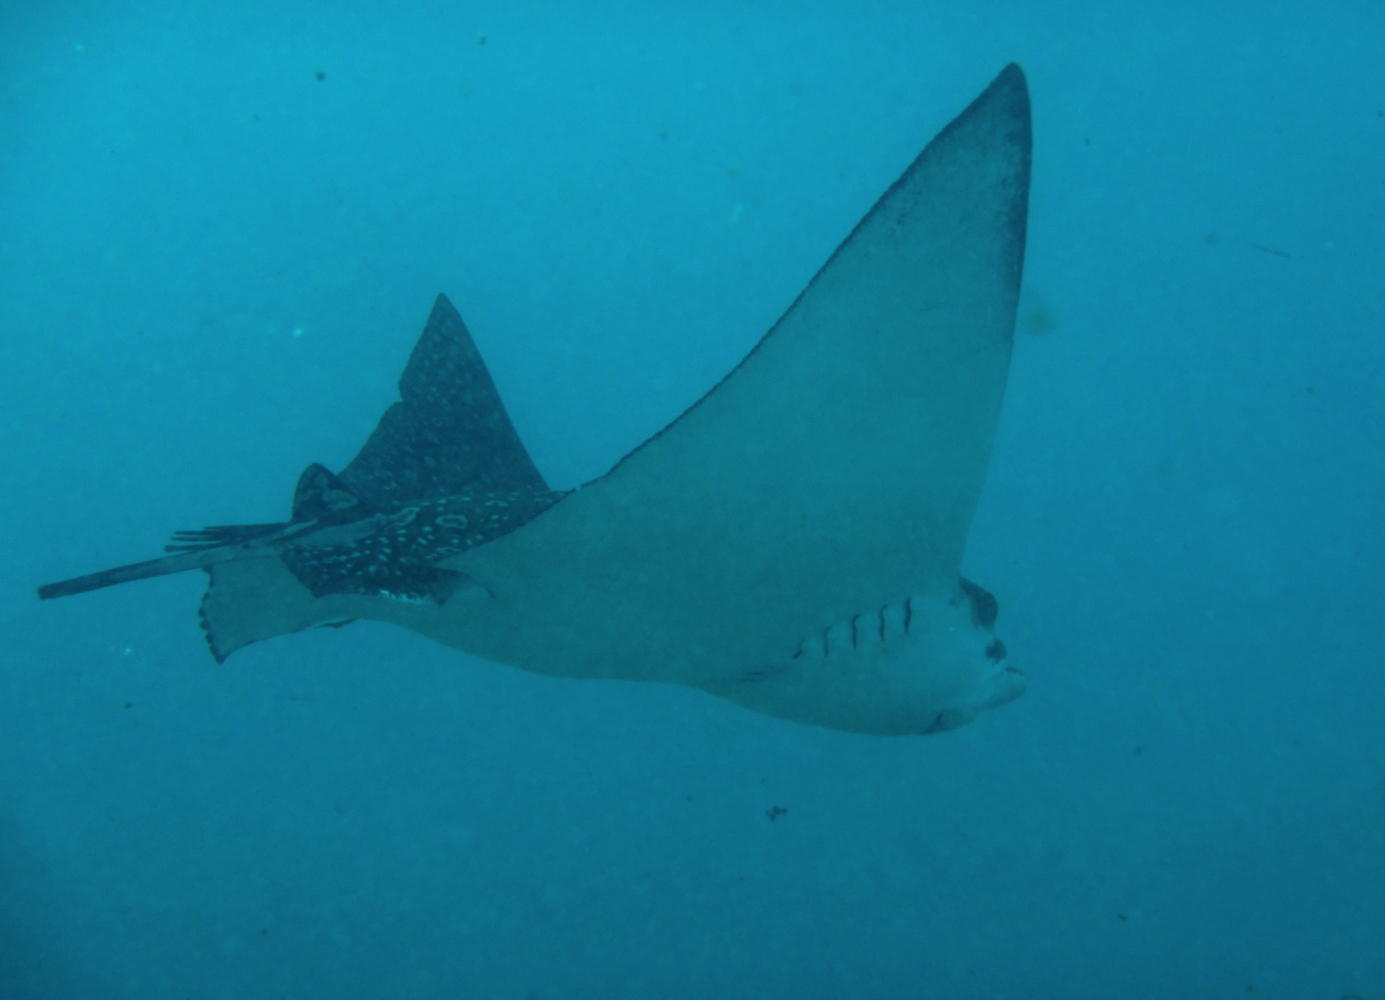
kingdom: Animalia
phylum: Chordata
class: Elasmobranchii
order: Myliobatiformes
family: Myliobatidae
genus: Aetobatus
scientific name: Aetobatus ocellatus
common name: Ocellated eagle ray
